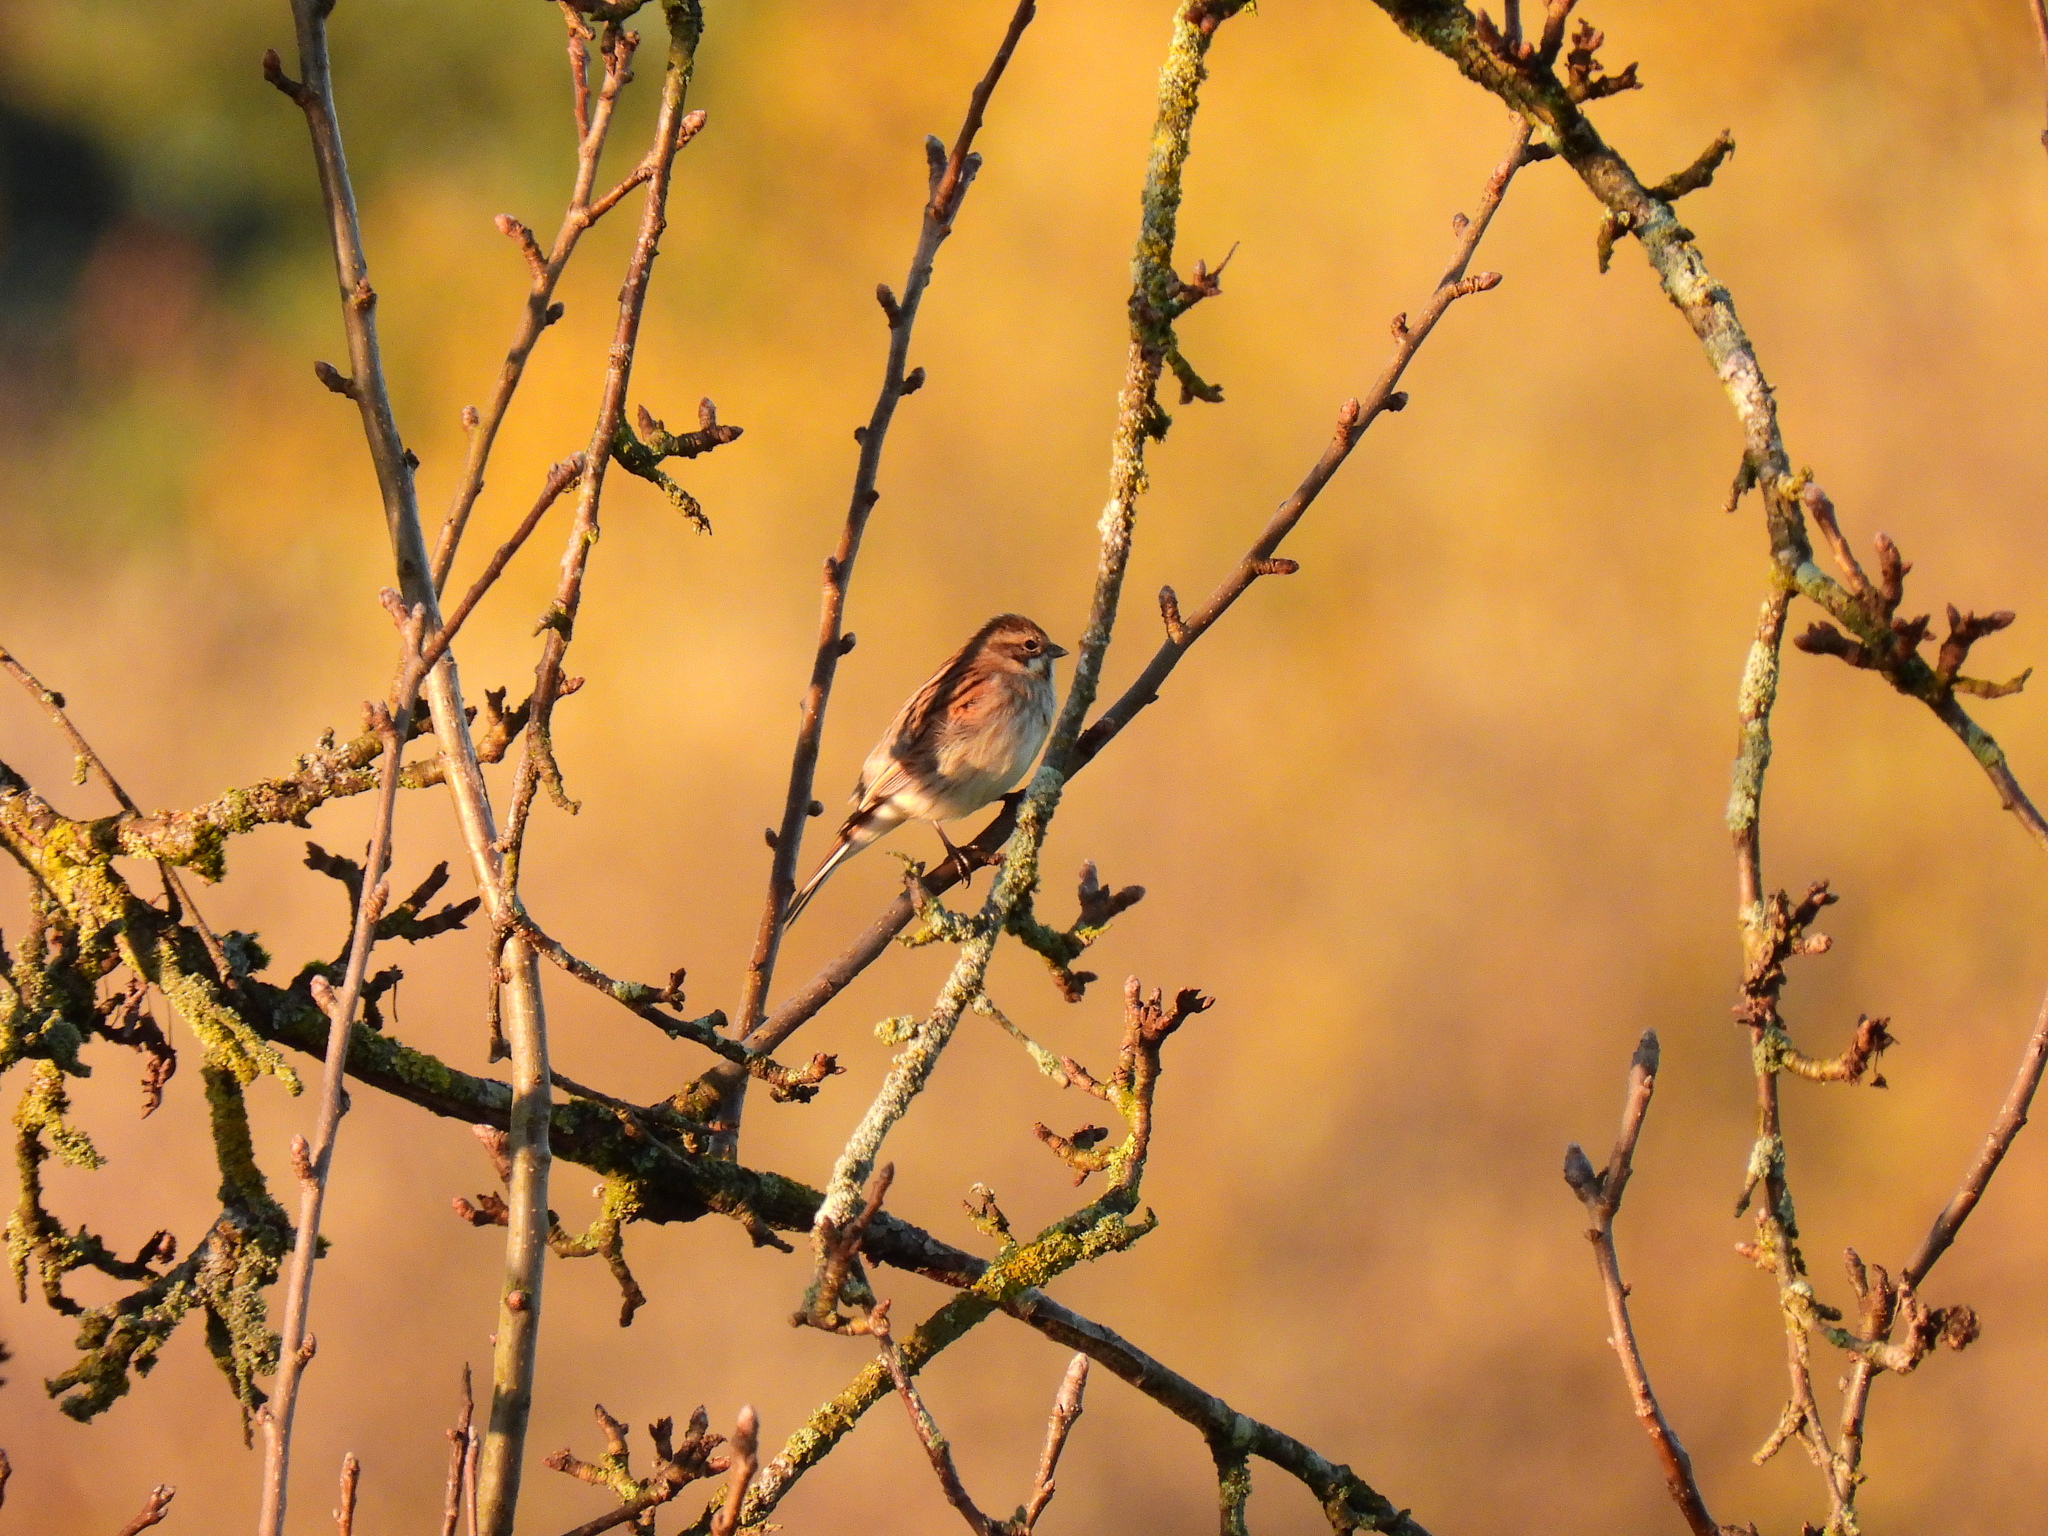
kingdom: Animalia
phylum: Chordata
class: Aves
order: Passeriformes
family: Emberizidae
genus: Emberiza
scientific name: Emberiza schoeniclus
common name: Reed bunting
